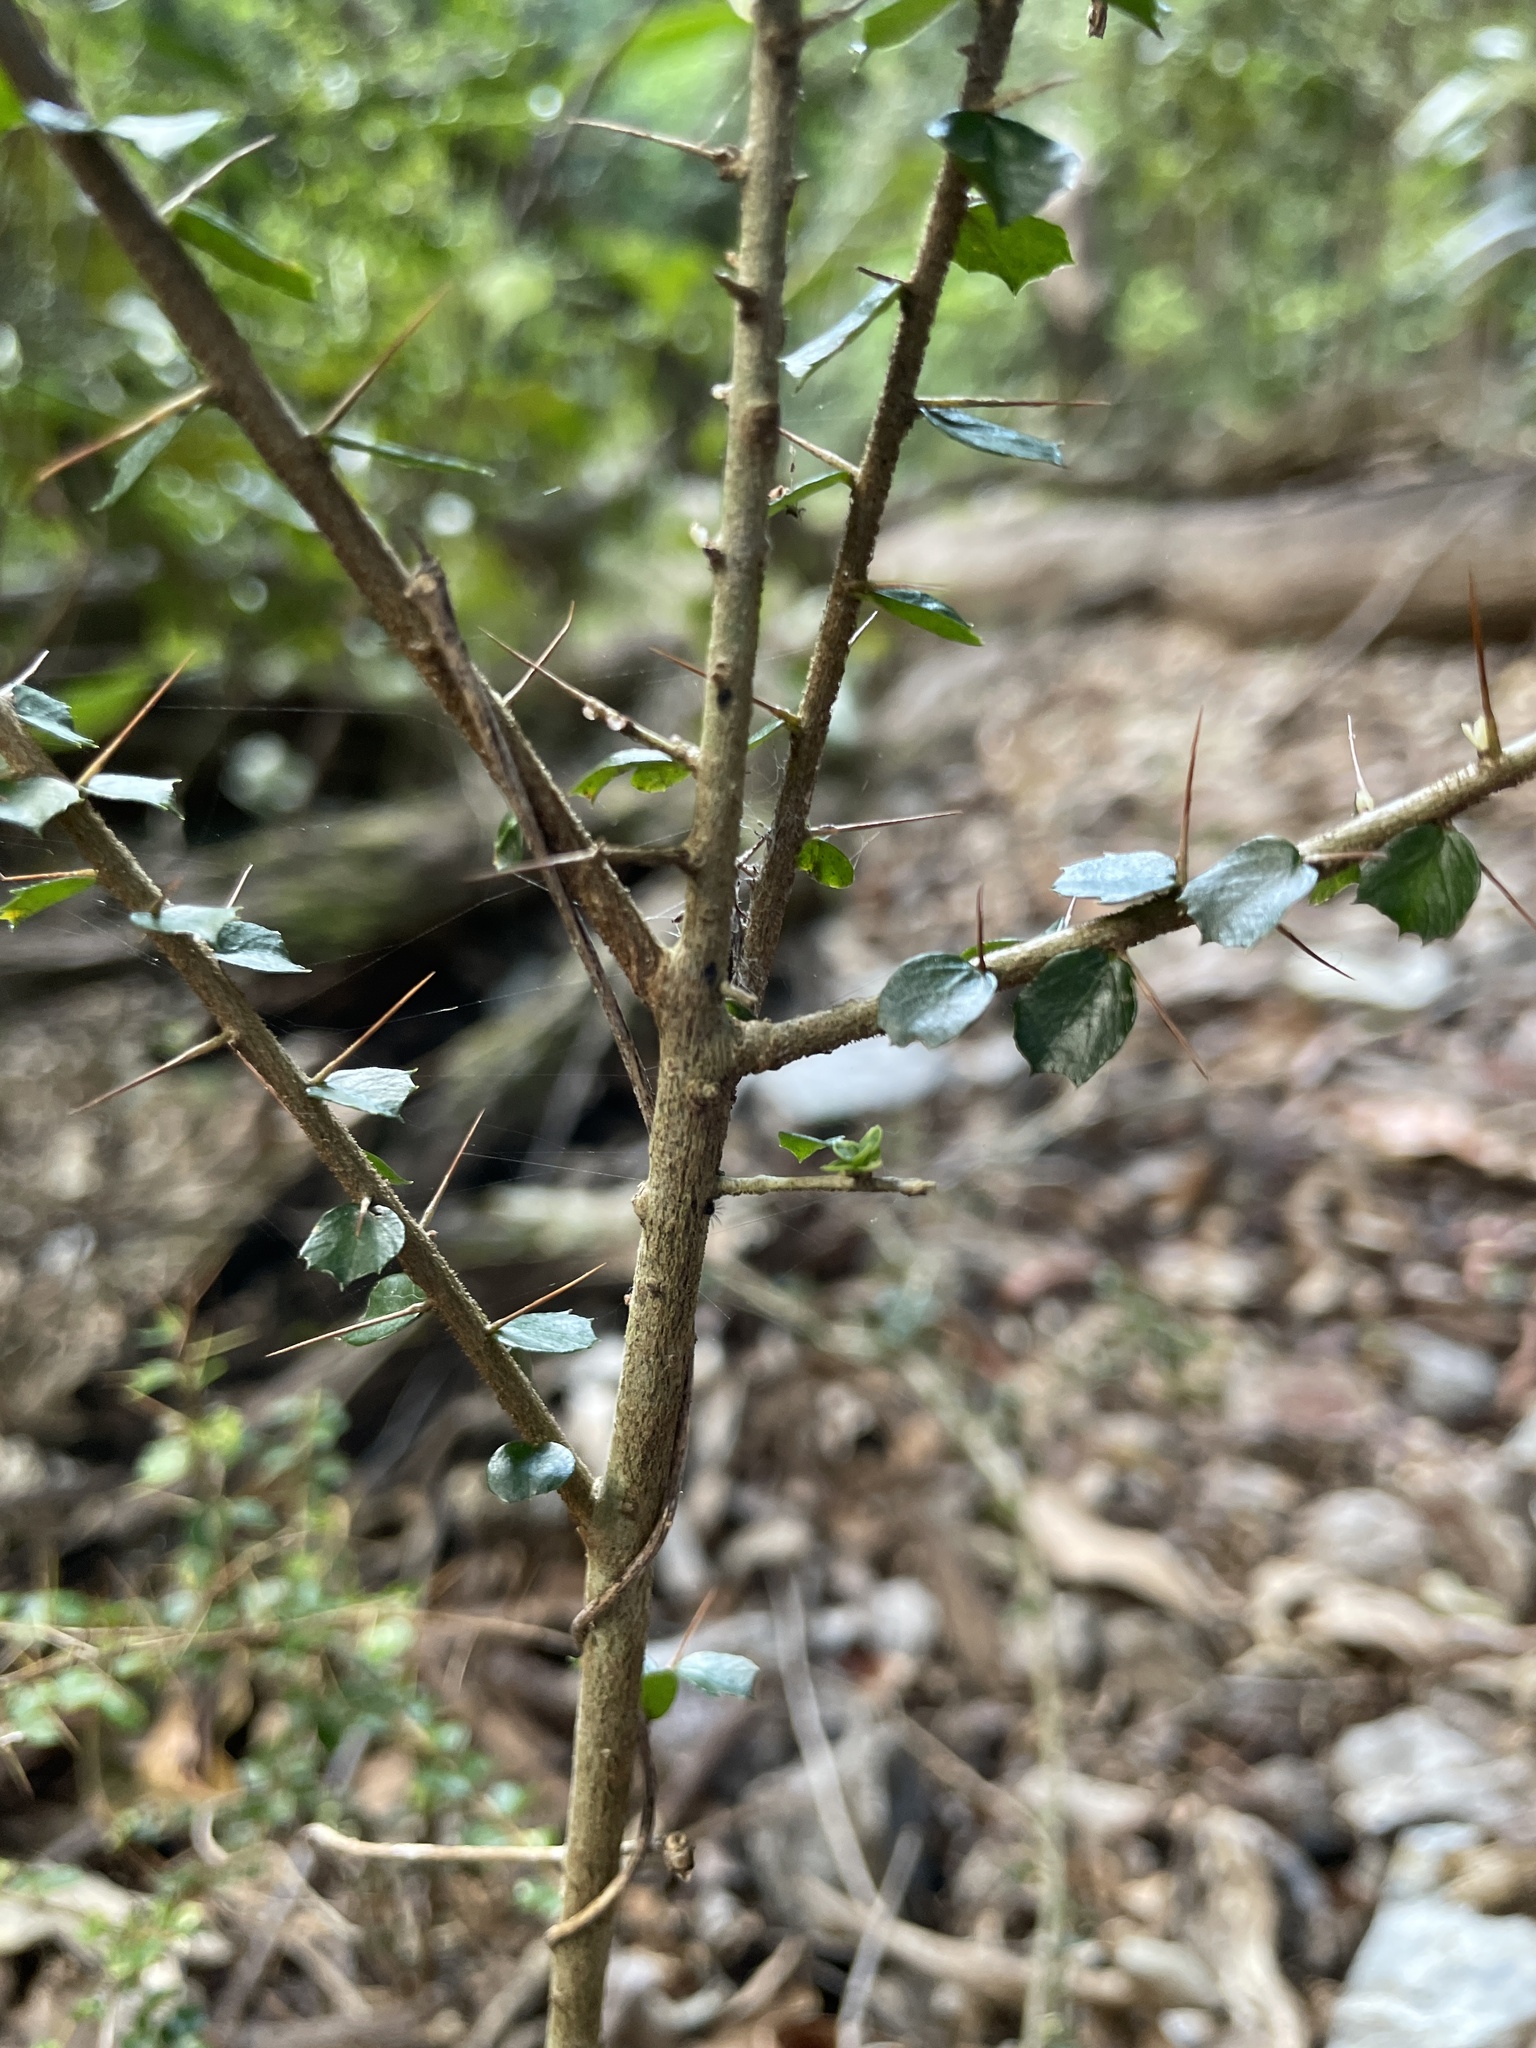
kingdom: Plantae
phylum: Tracheophyta
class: Magnoliopsida
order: Apiales
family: Pittosporaceae
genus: Pittosporum
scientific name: Pittosporum multiflorum
